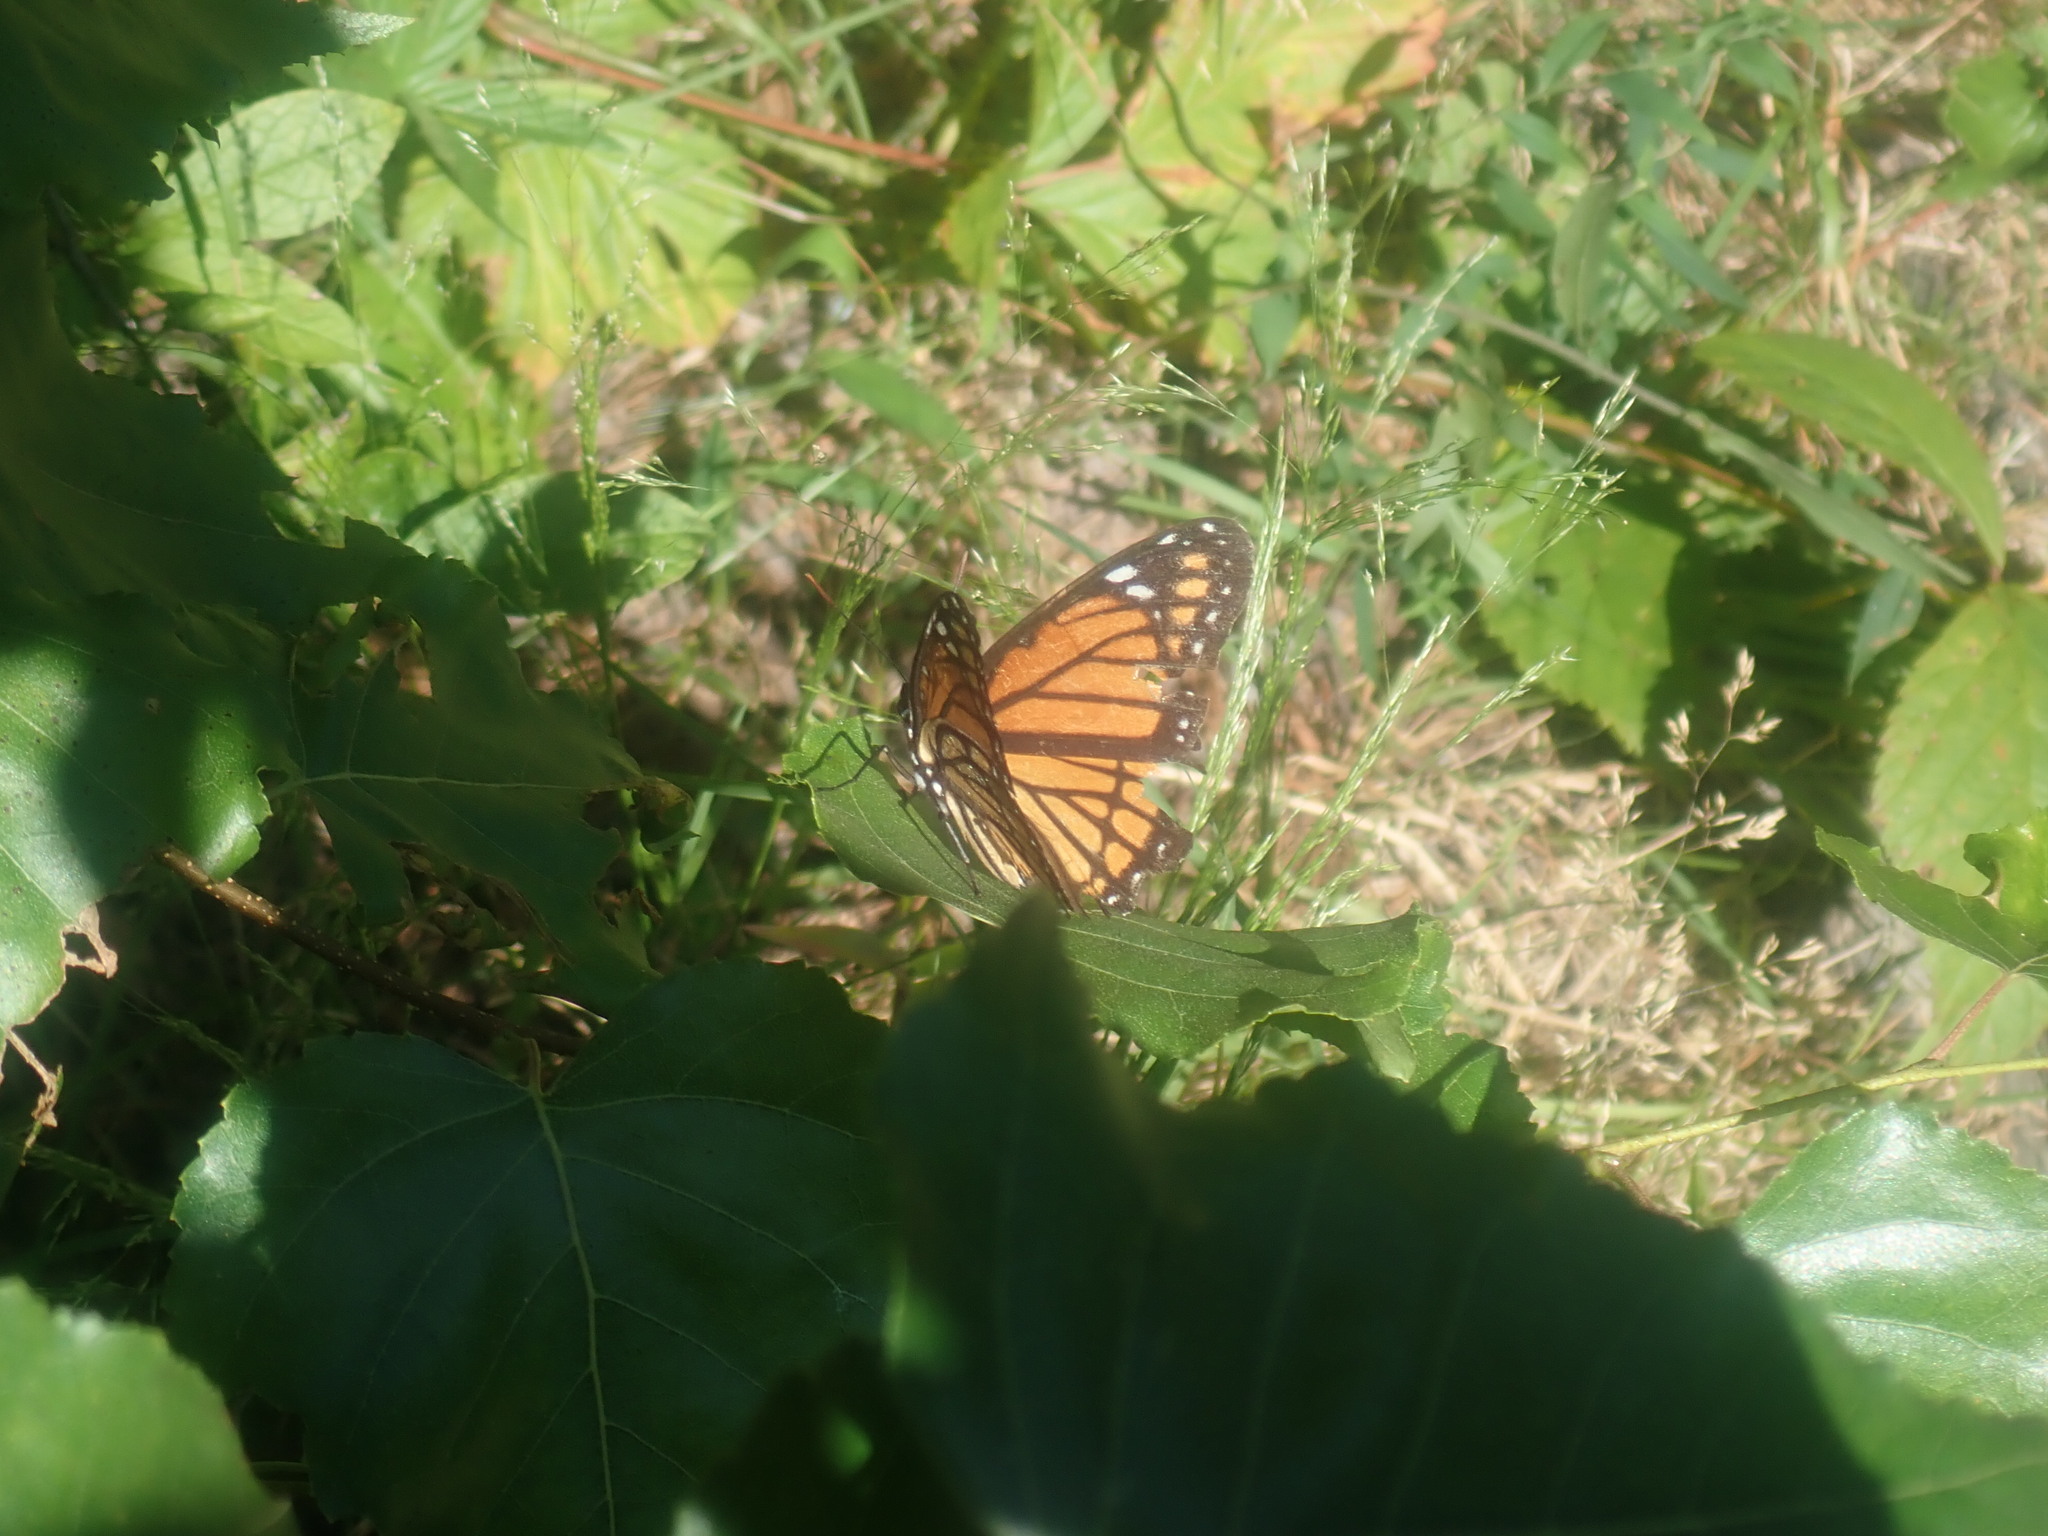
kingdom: Animalia
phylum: Arthropoda
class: Insecta
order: Lepidoptera
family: Nymphalidae
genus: Limenitis
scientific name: Limenitis archippus
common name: Viceroy
